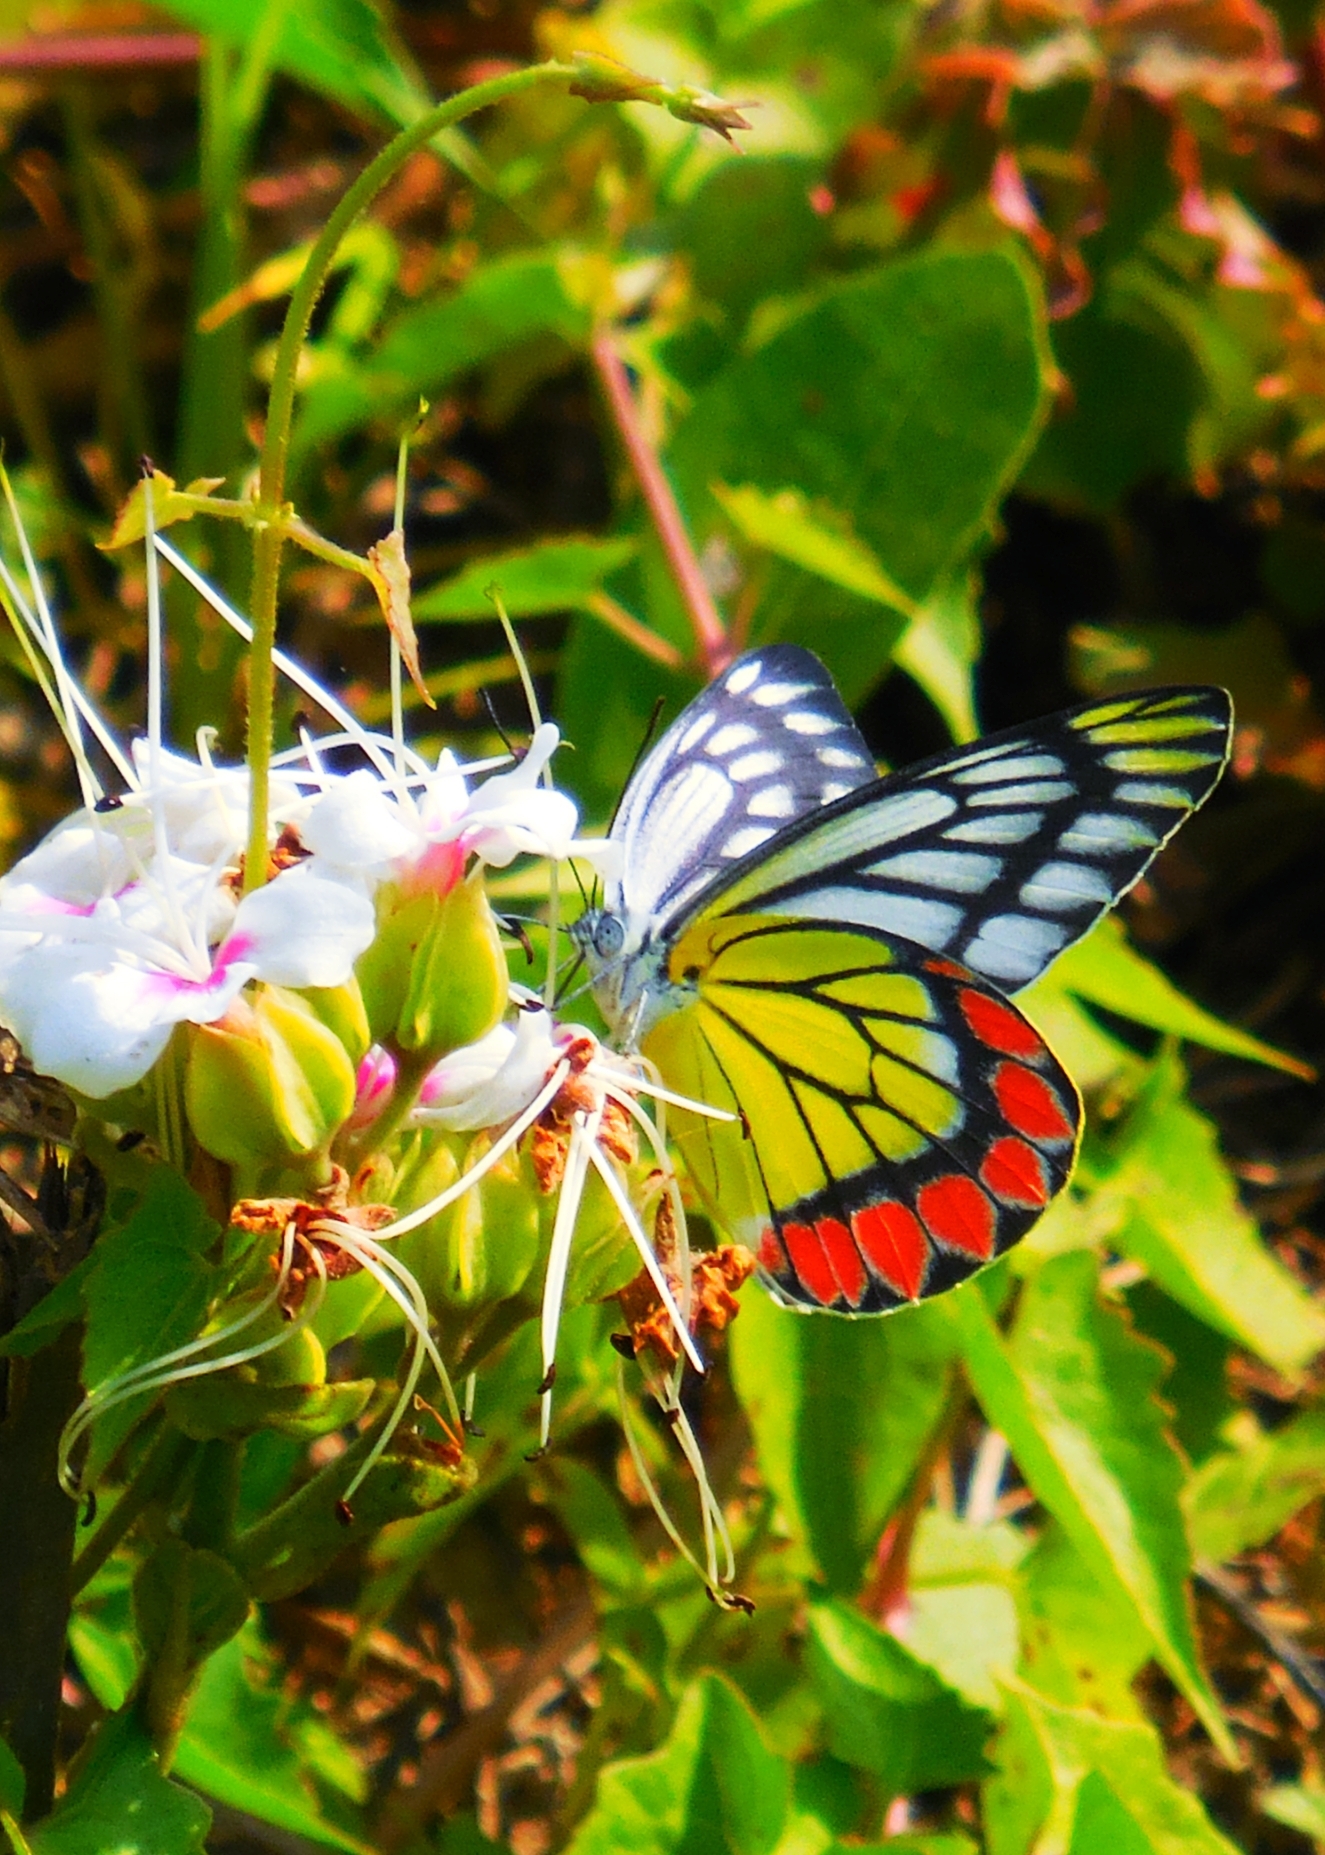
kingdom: Animalia
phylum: Arthropoda
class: Insecta
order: Lepidoptera
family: Pieridae
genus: Delias
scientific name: Delias eucharis
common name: Common jezebel
